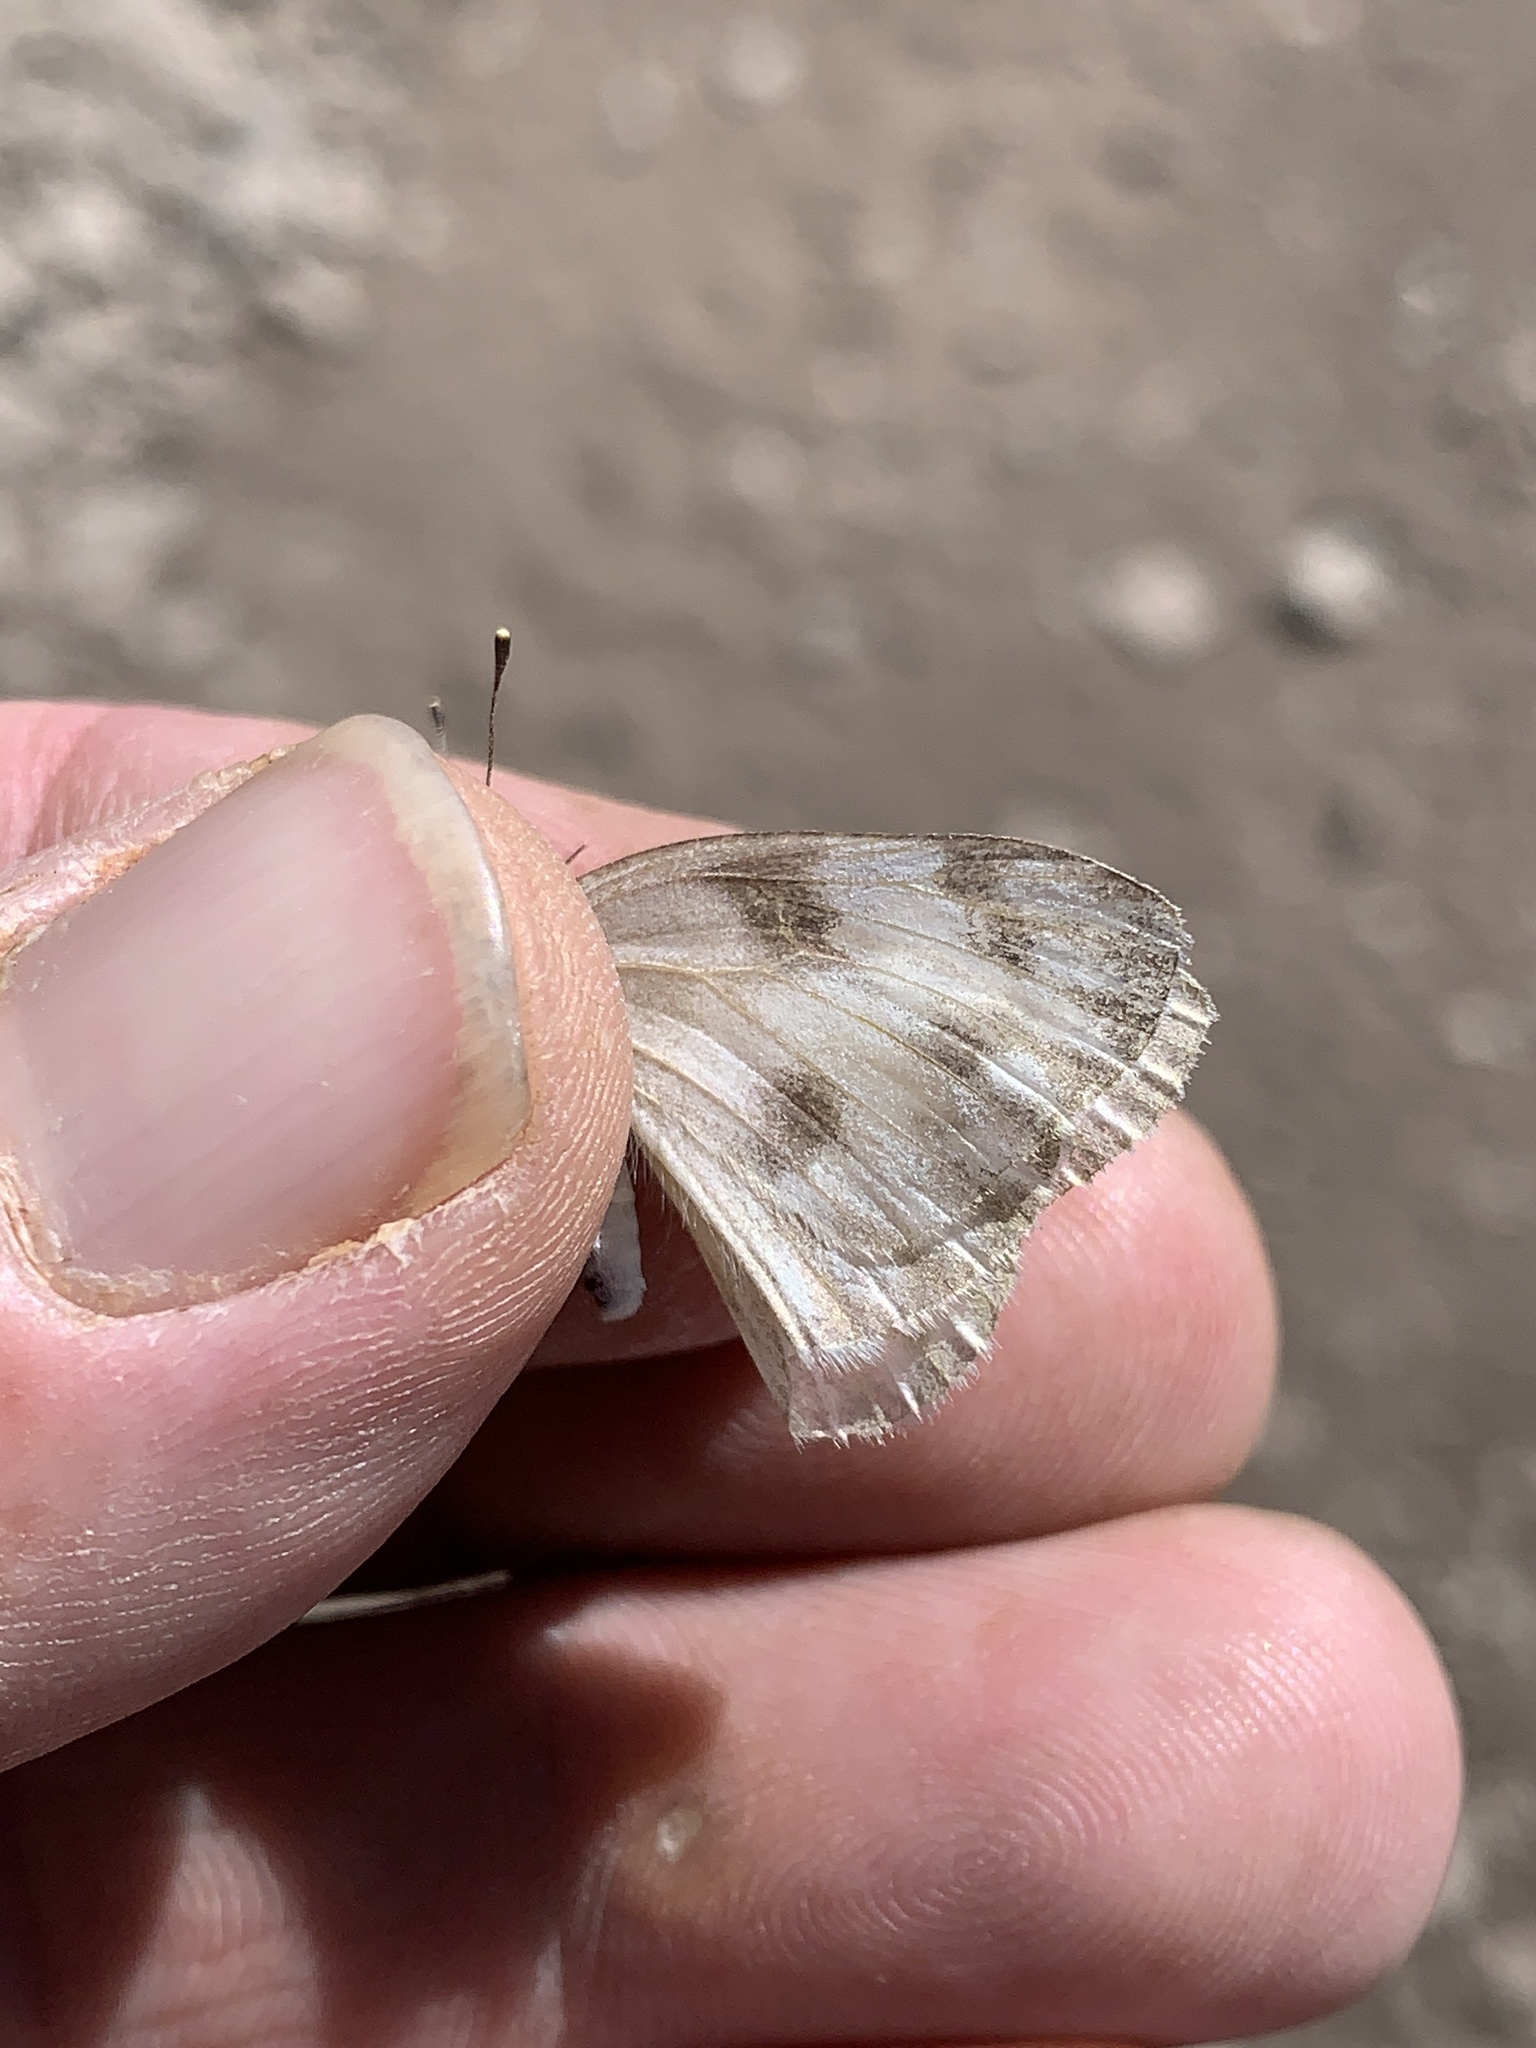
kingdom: Animalia
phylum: Arthropoda
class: Insecta
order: Lepidoptera
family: Pieridae
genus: Pontia
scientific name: Pontia protodice
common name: Checkered white
